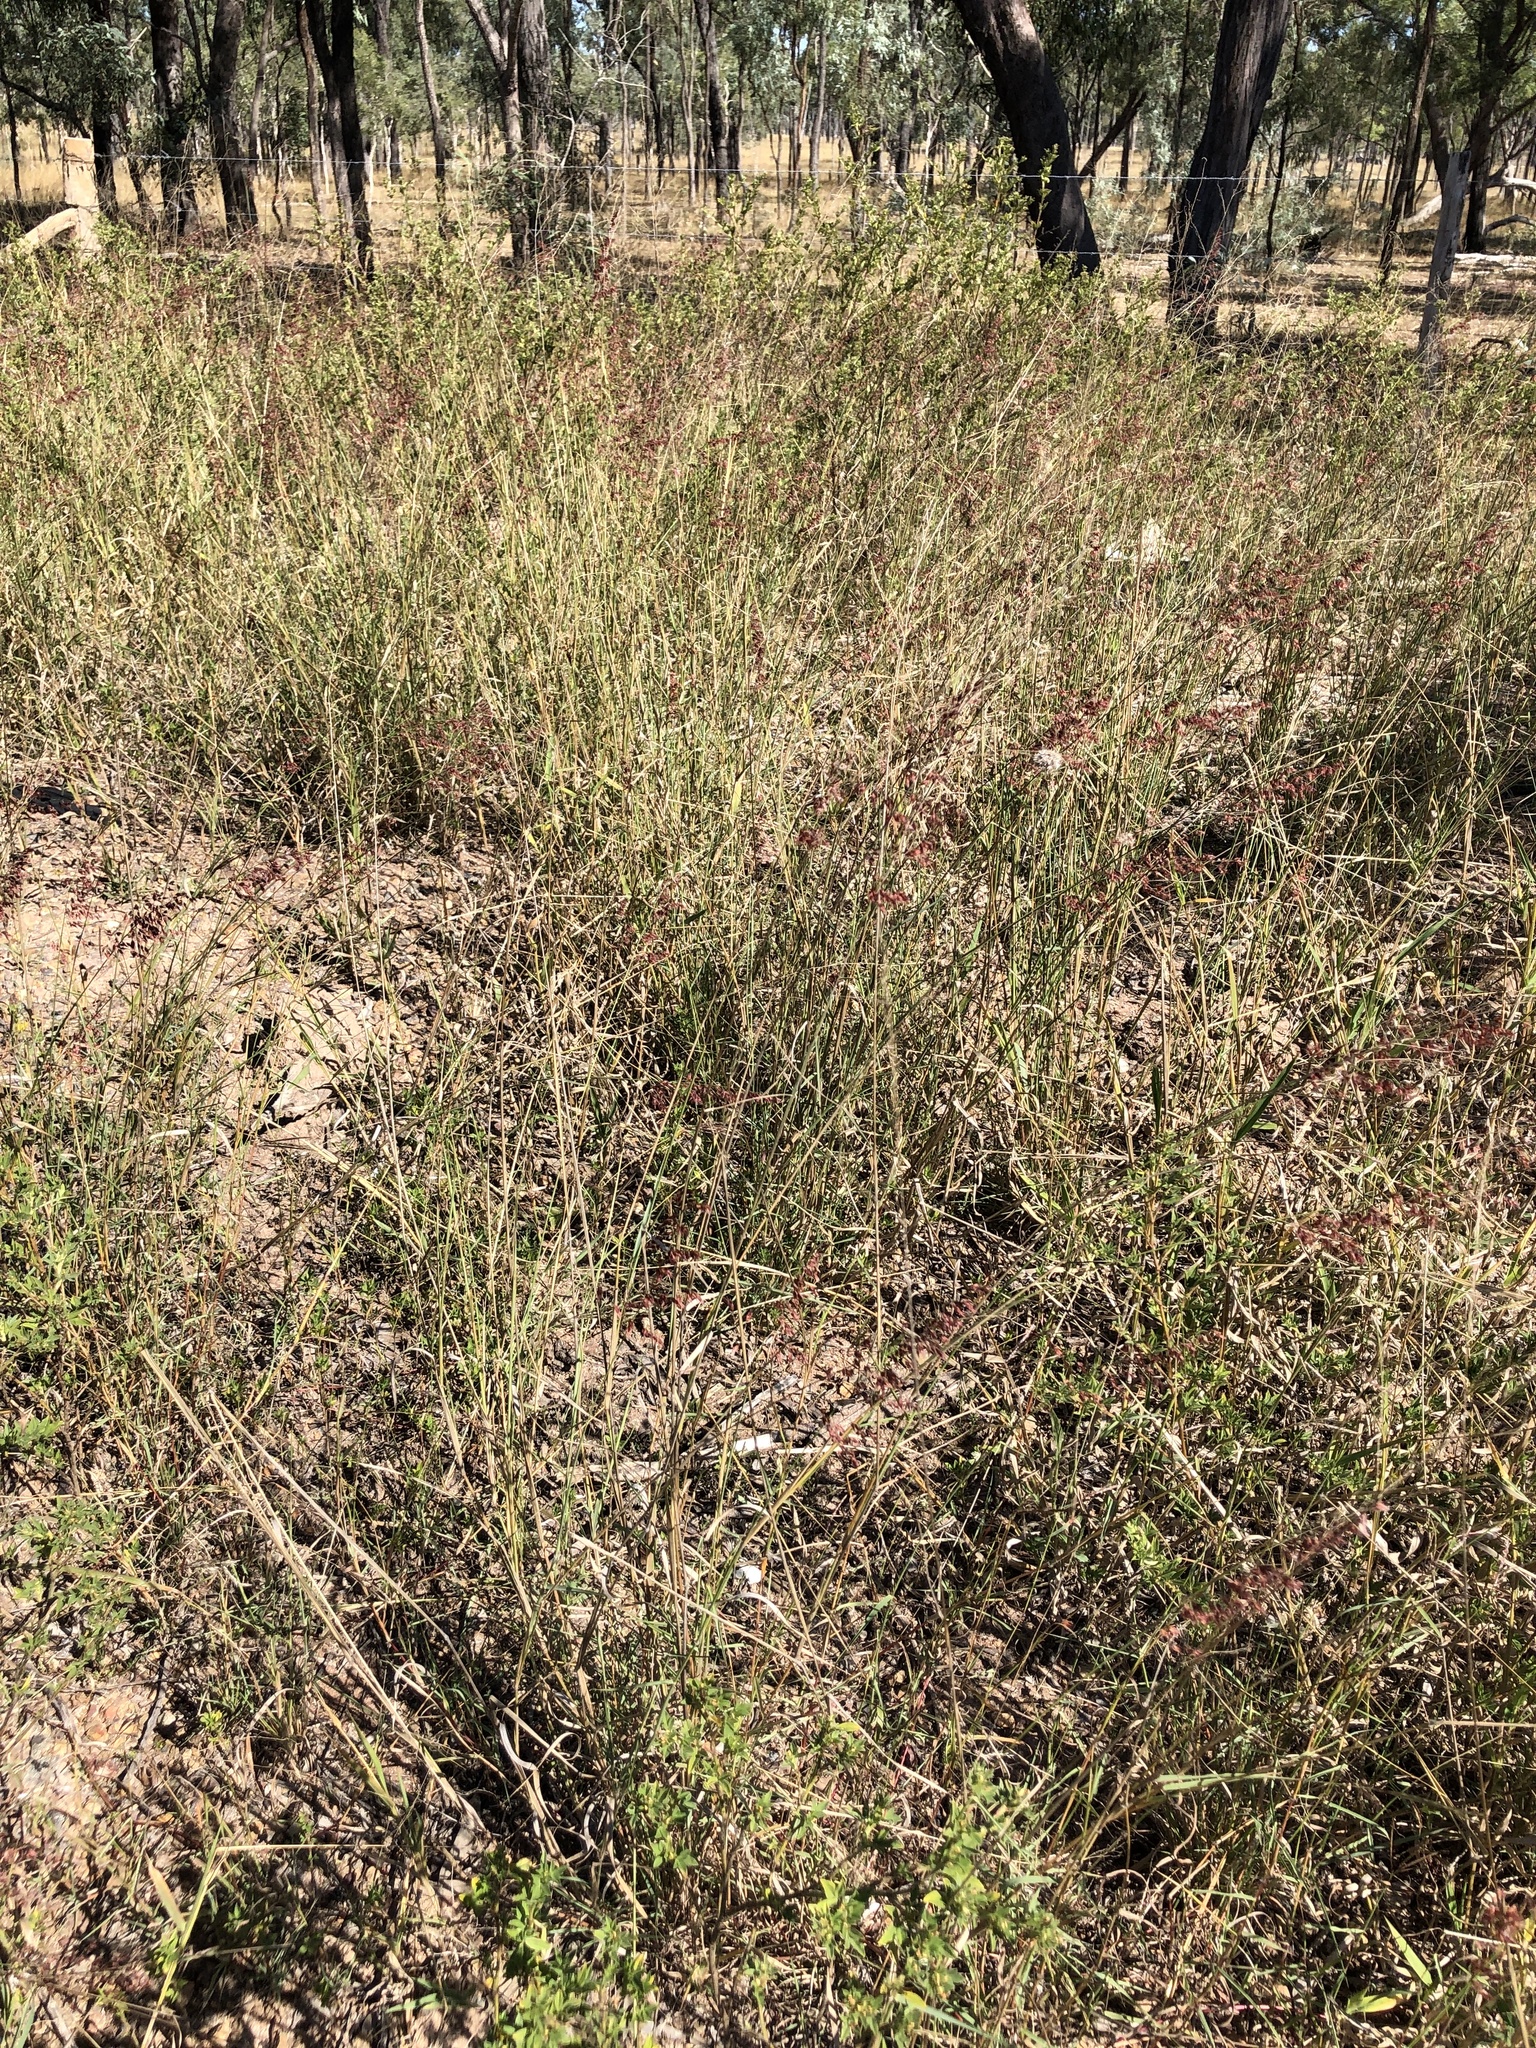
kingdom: Plantae
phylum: Tracheophyta
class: Liliopsida
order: Poales
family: Poaceae
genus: Melinis
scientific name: Melinis repens
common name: Rose natal grass
